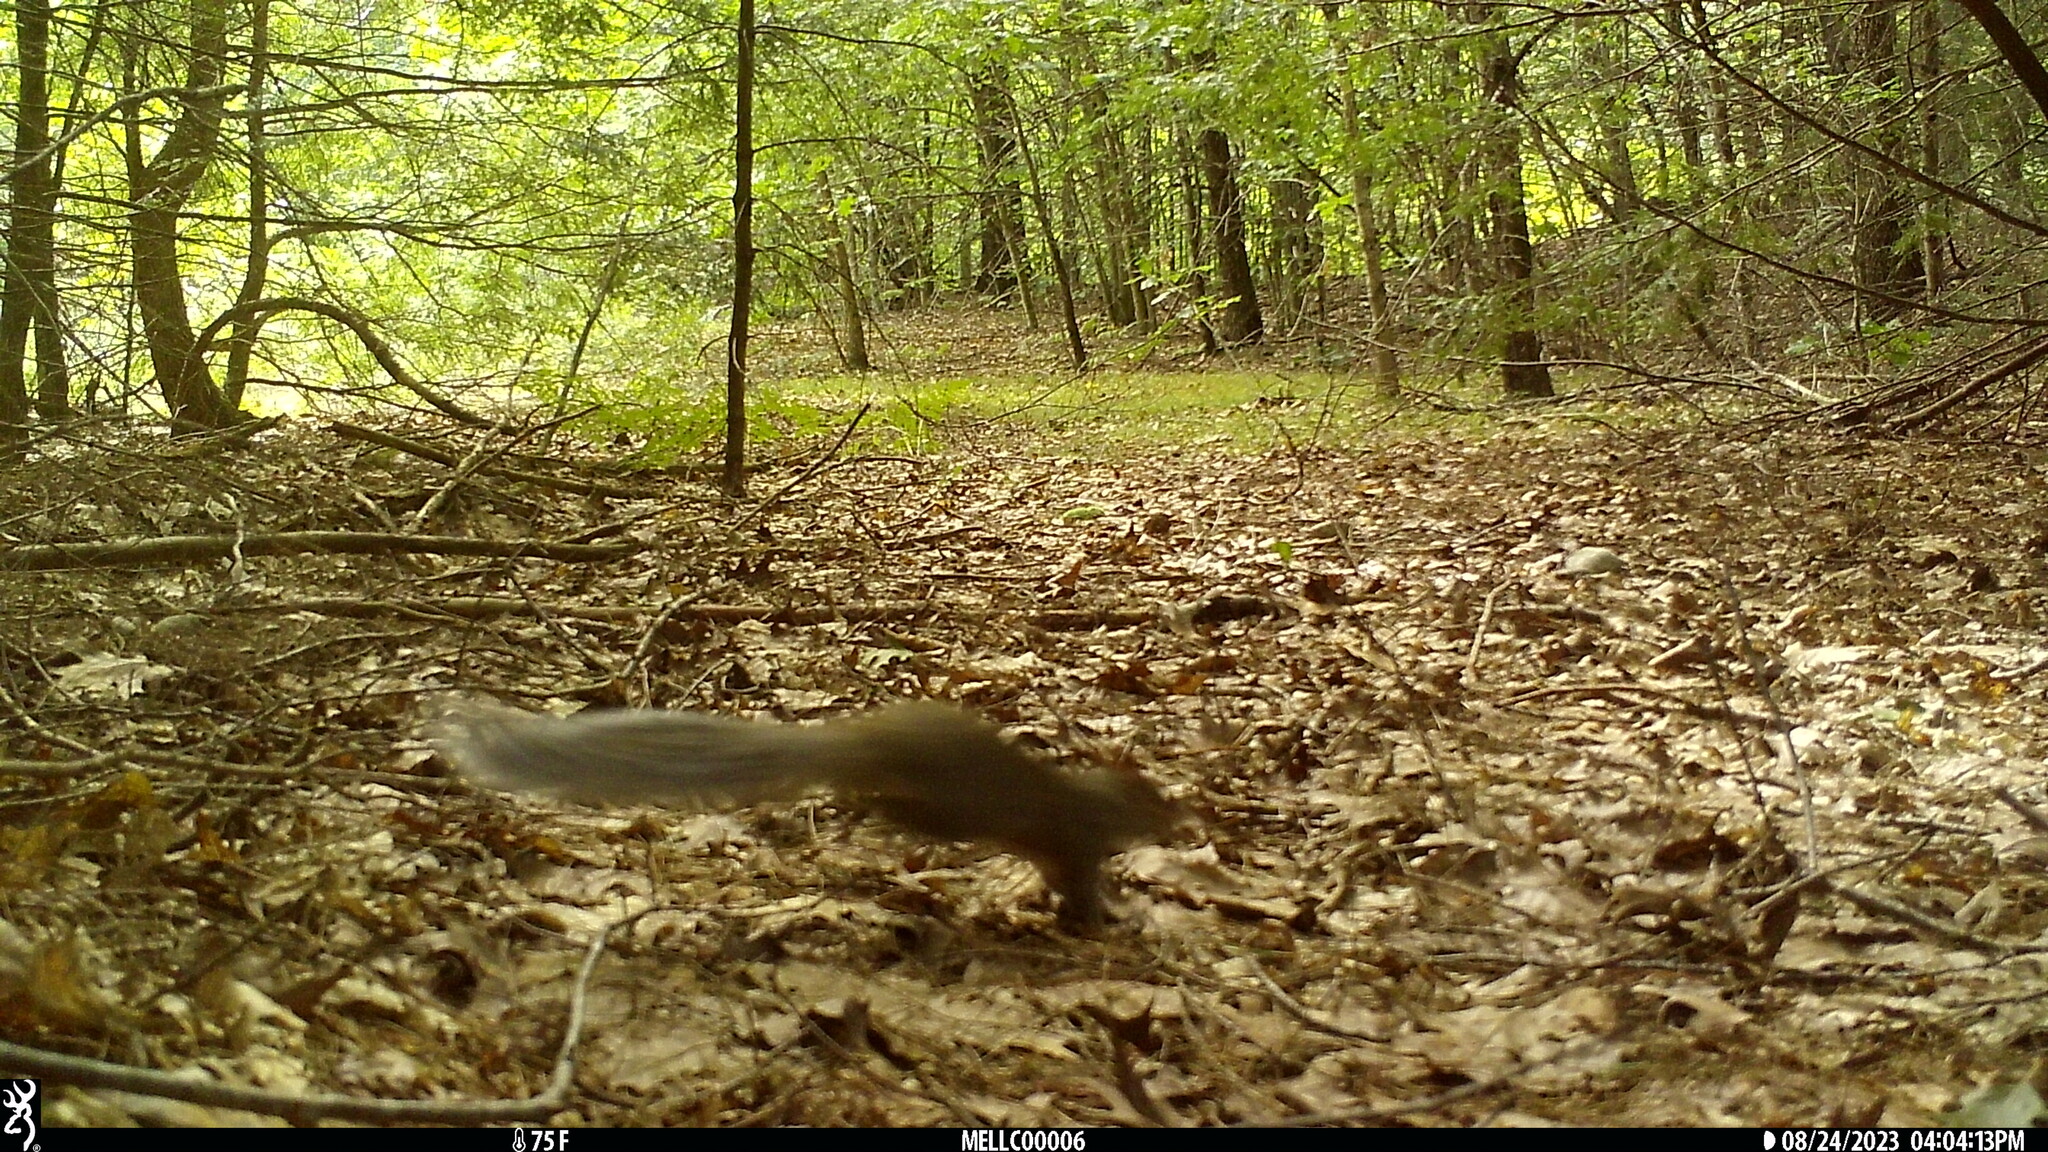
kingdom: Animalia
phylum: Chordata
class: Mammalia
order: Rodentia
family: Sciuridae
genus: Sciurus
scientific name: Sciurus carolinensis
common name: Eastern gray squirrel
